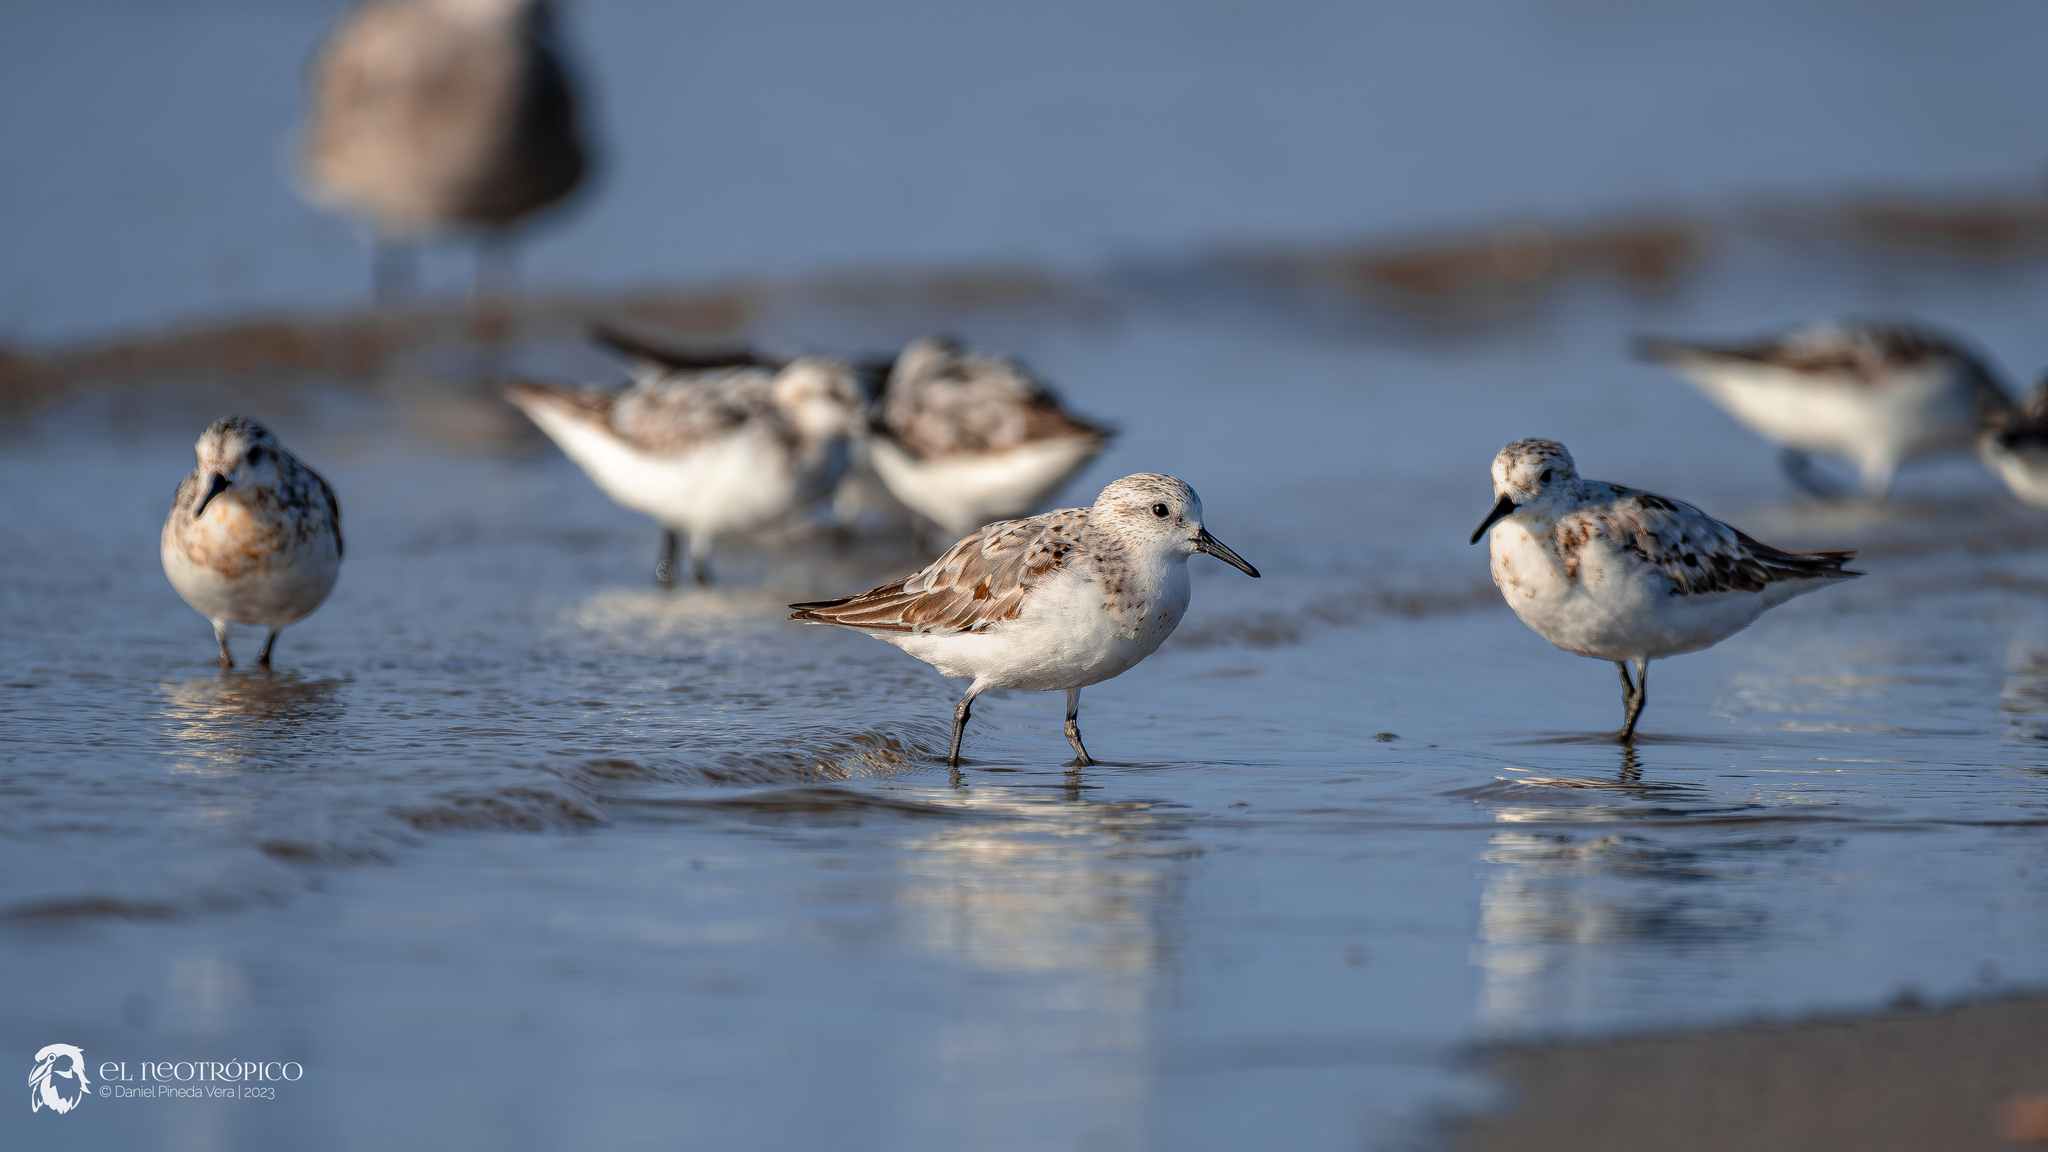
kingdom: Animalia
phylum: Chordata
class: Aves
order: Charadriiformes
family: Scolopacidae
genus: Calidris
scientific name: Calidris alba
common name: Sanderling
